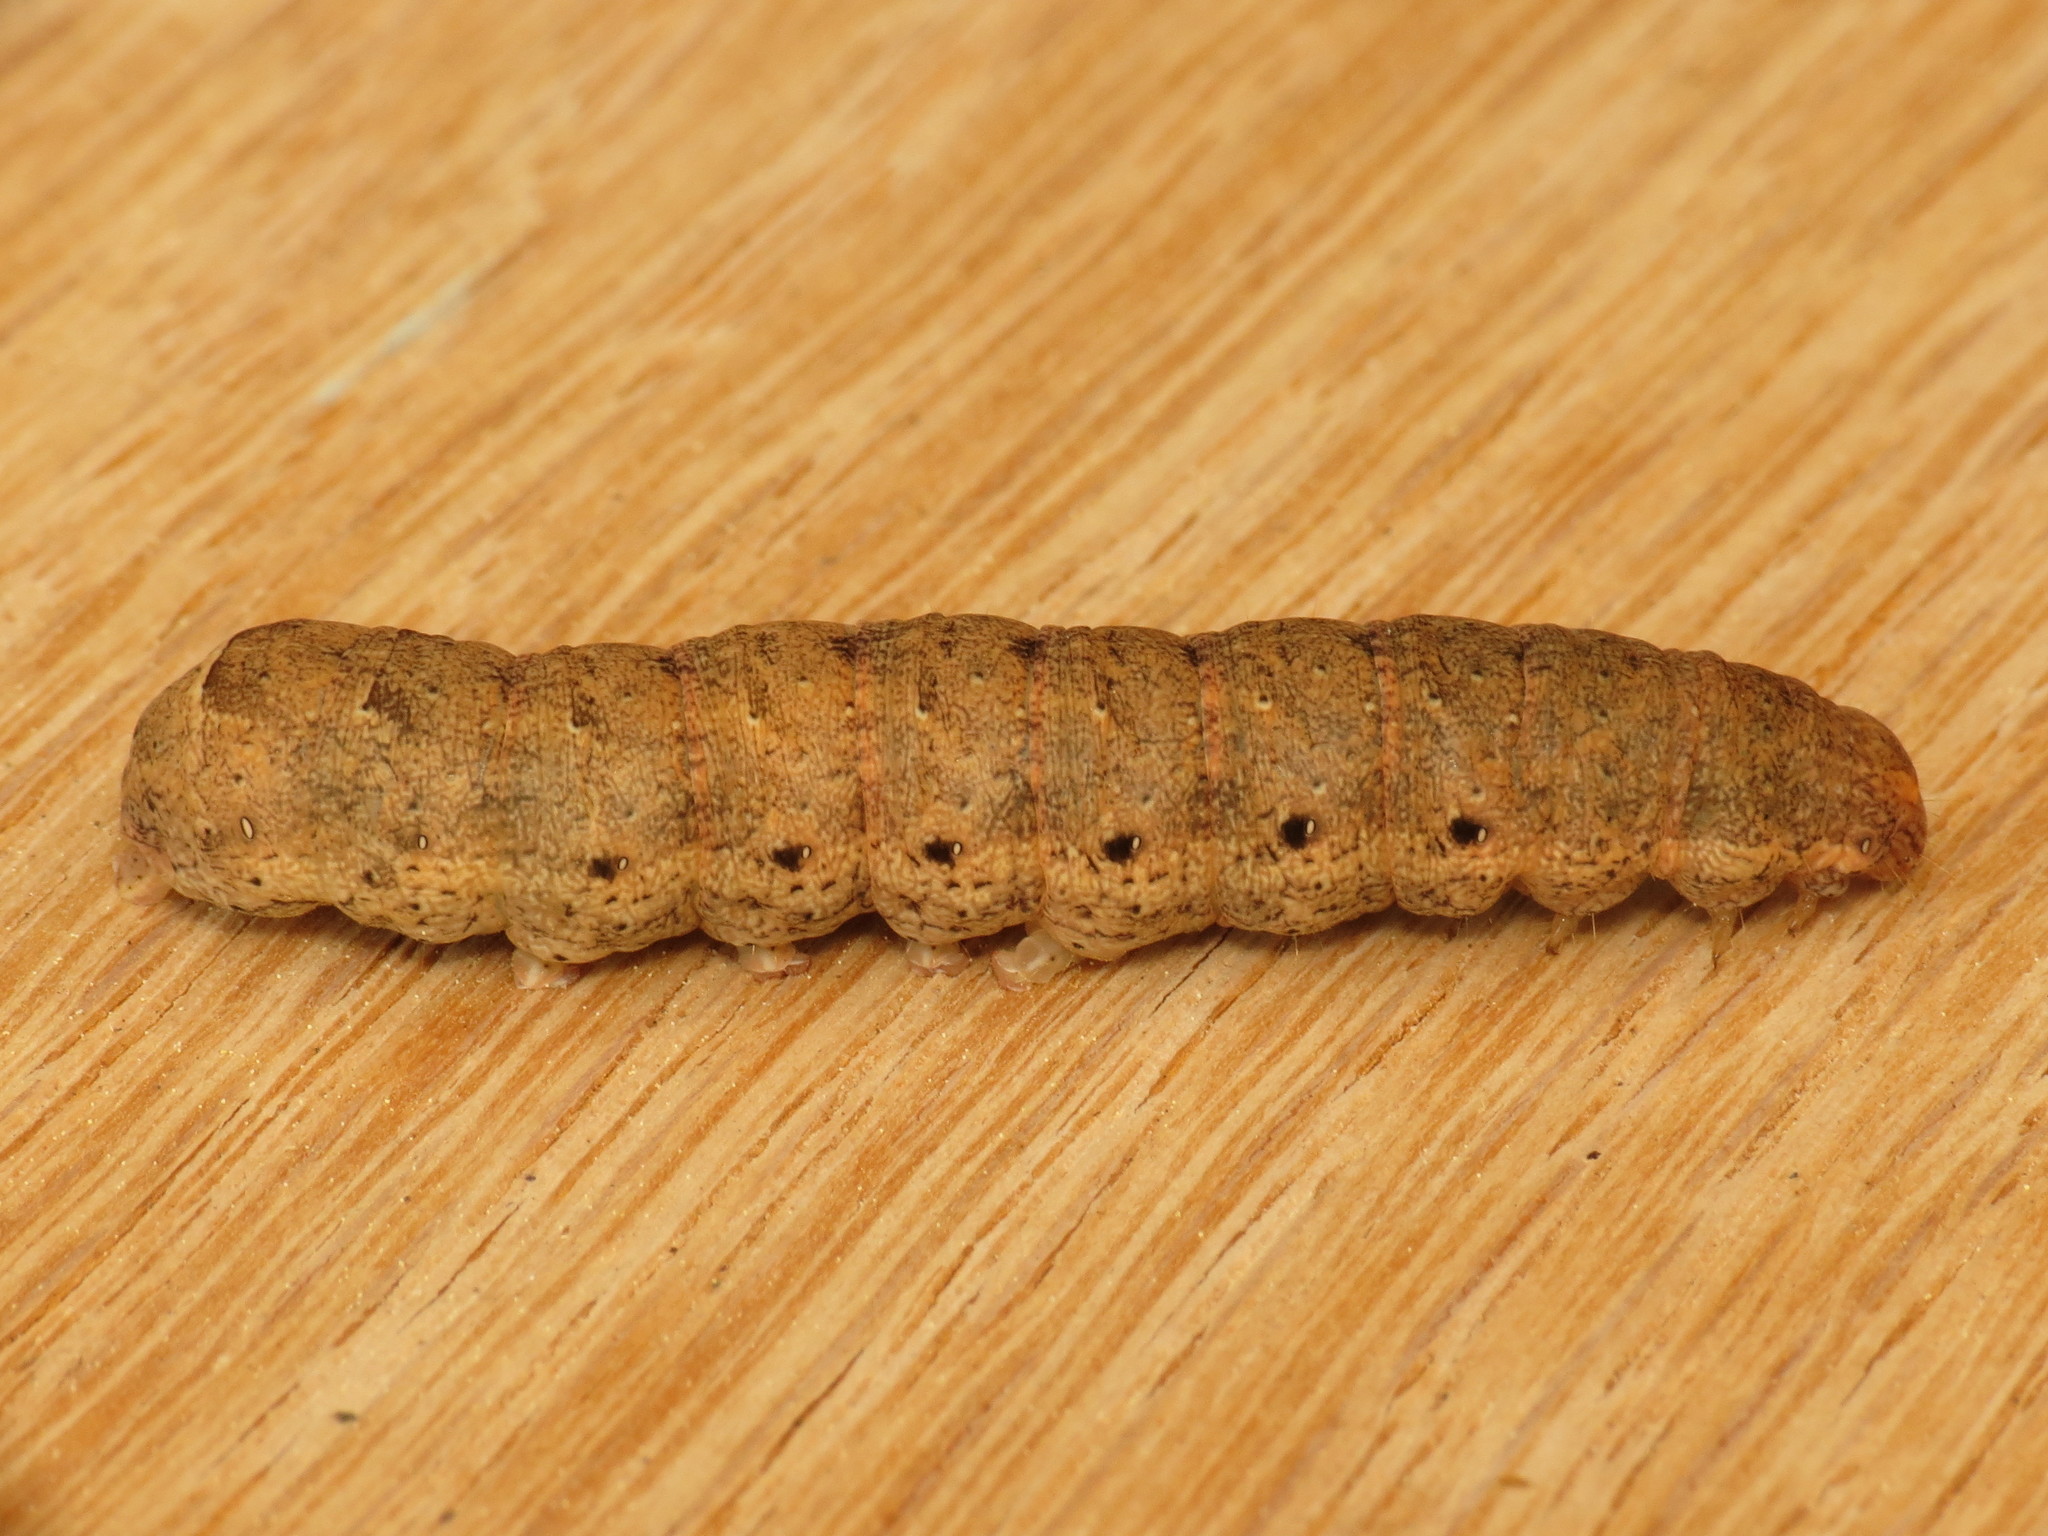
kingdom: Animalia
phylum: Arthropoda
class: Insecta
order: Lepidoptera
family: Noctuidae
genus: Noctua
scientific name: Noctua fimbriata
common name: Broad-bordered yellow underwing
